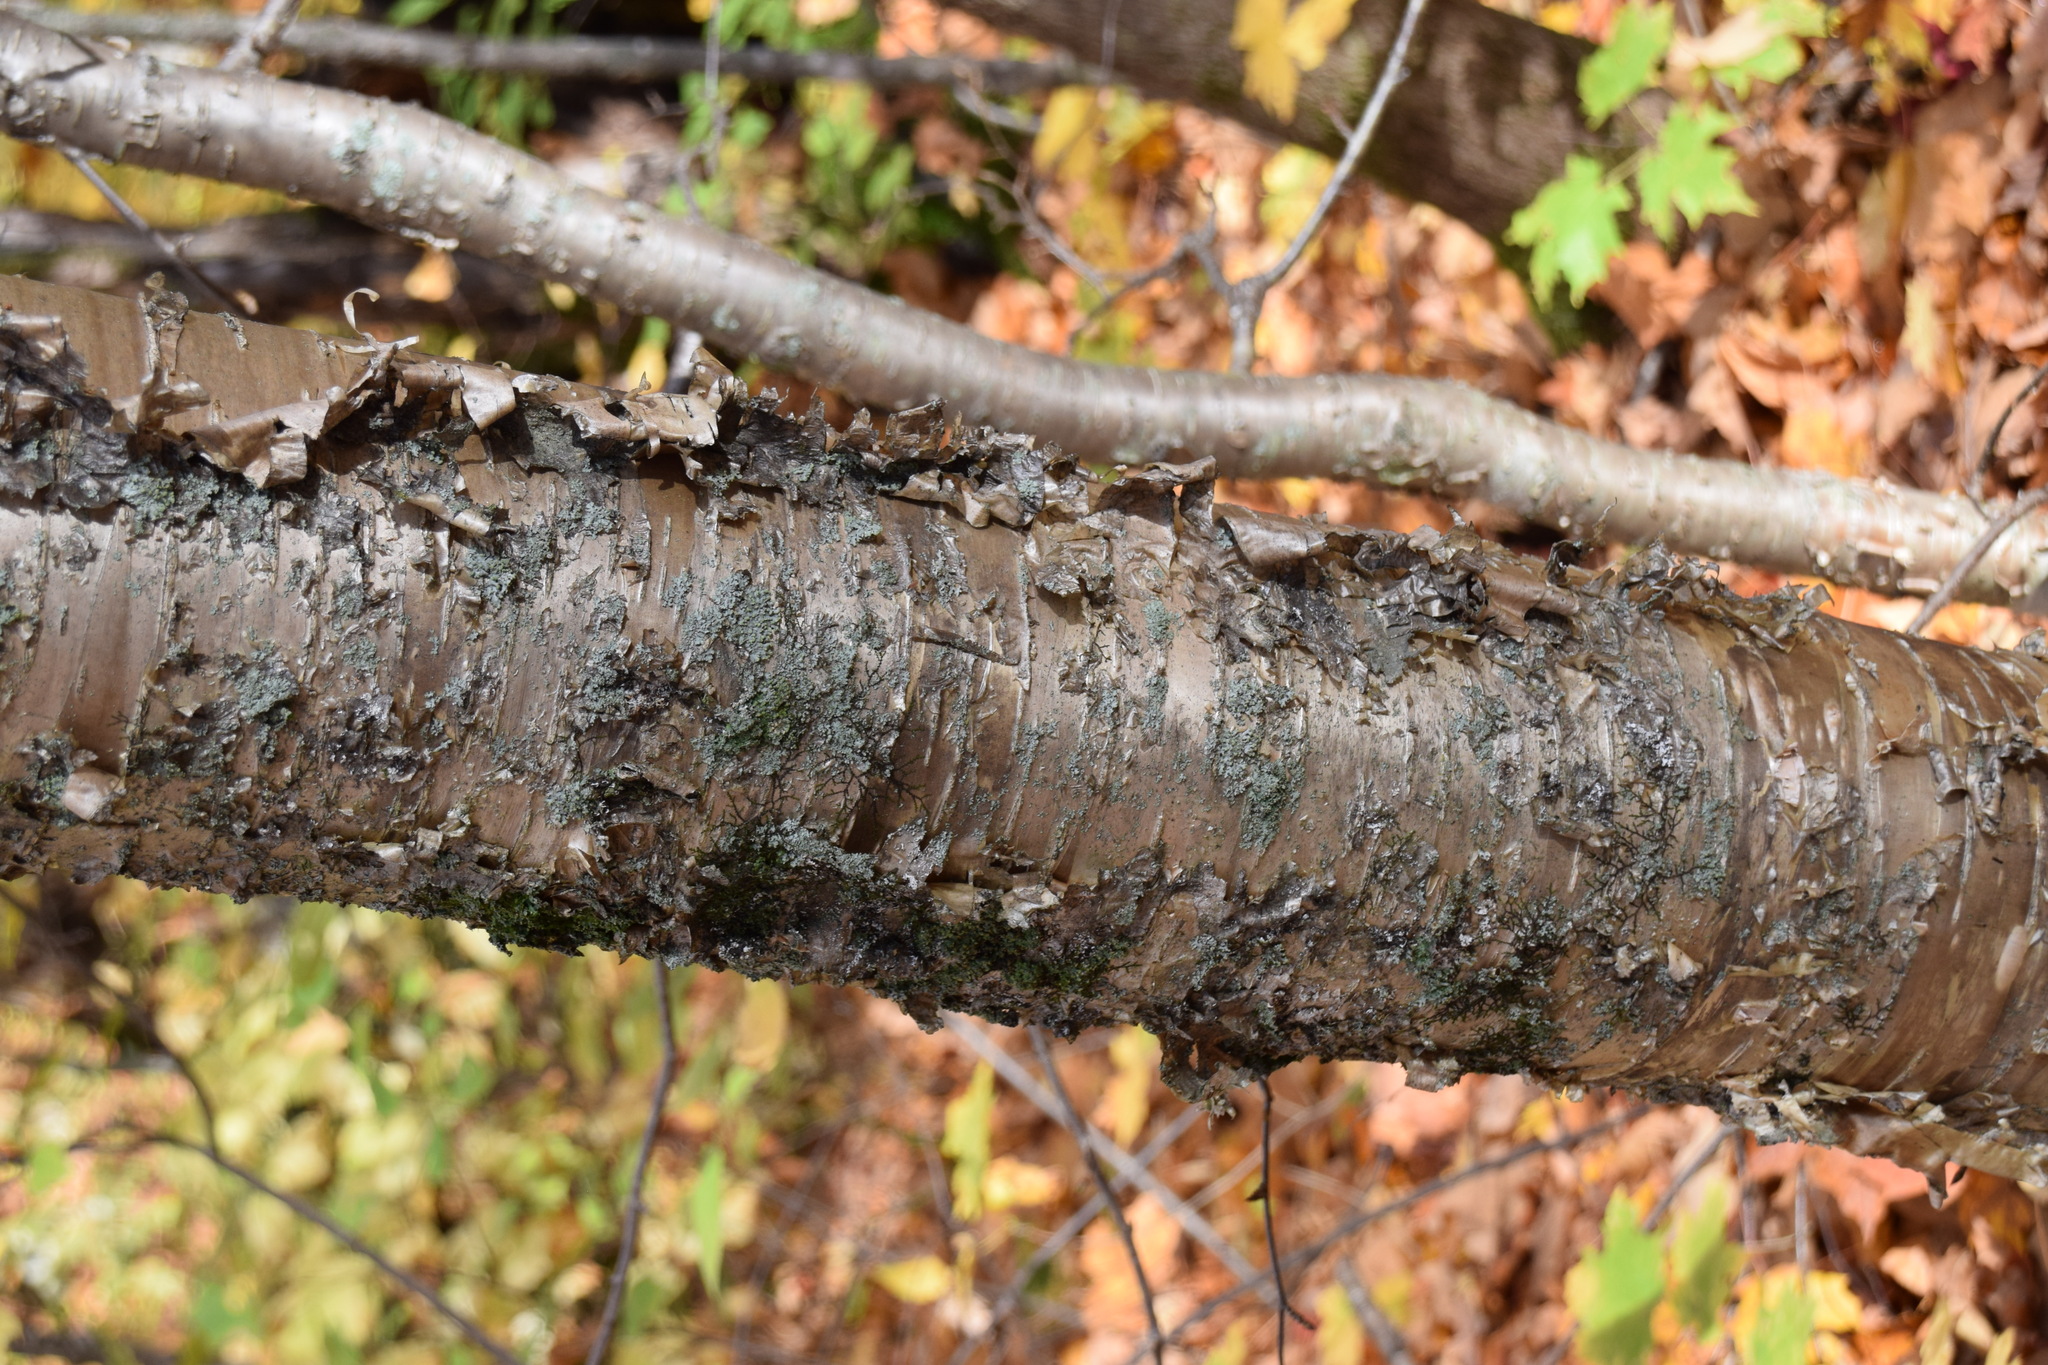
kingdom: Plantae
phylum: Tracheophyta
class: Magnoliopsida
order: Fagales
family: Betulaceae
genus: Betula
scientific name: Betula alleghaniensis
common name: Yellow birch
